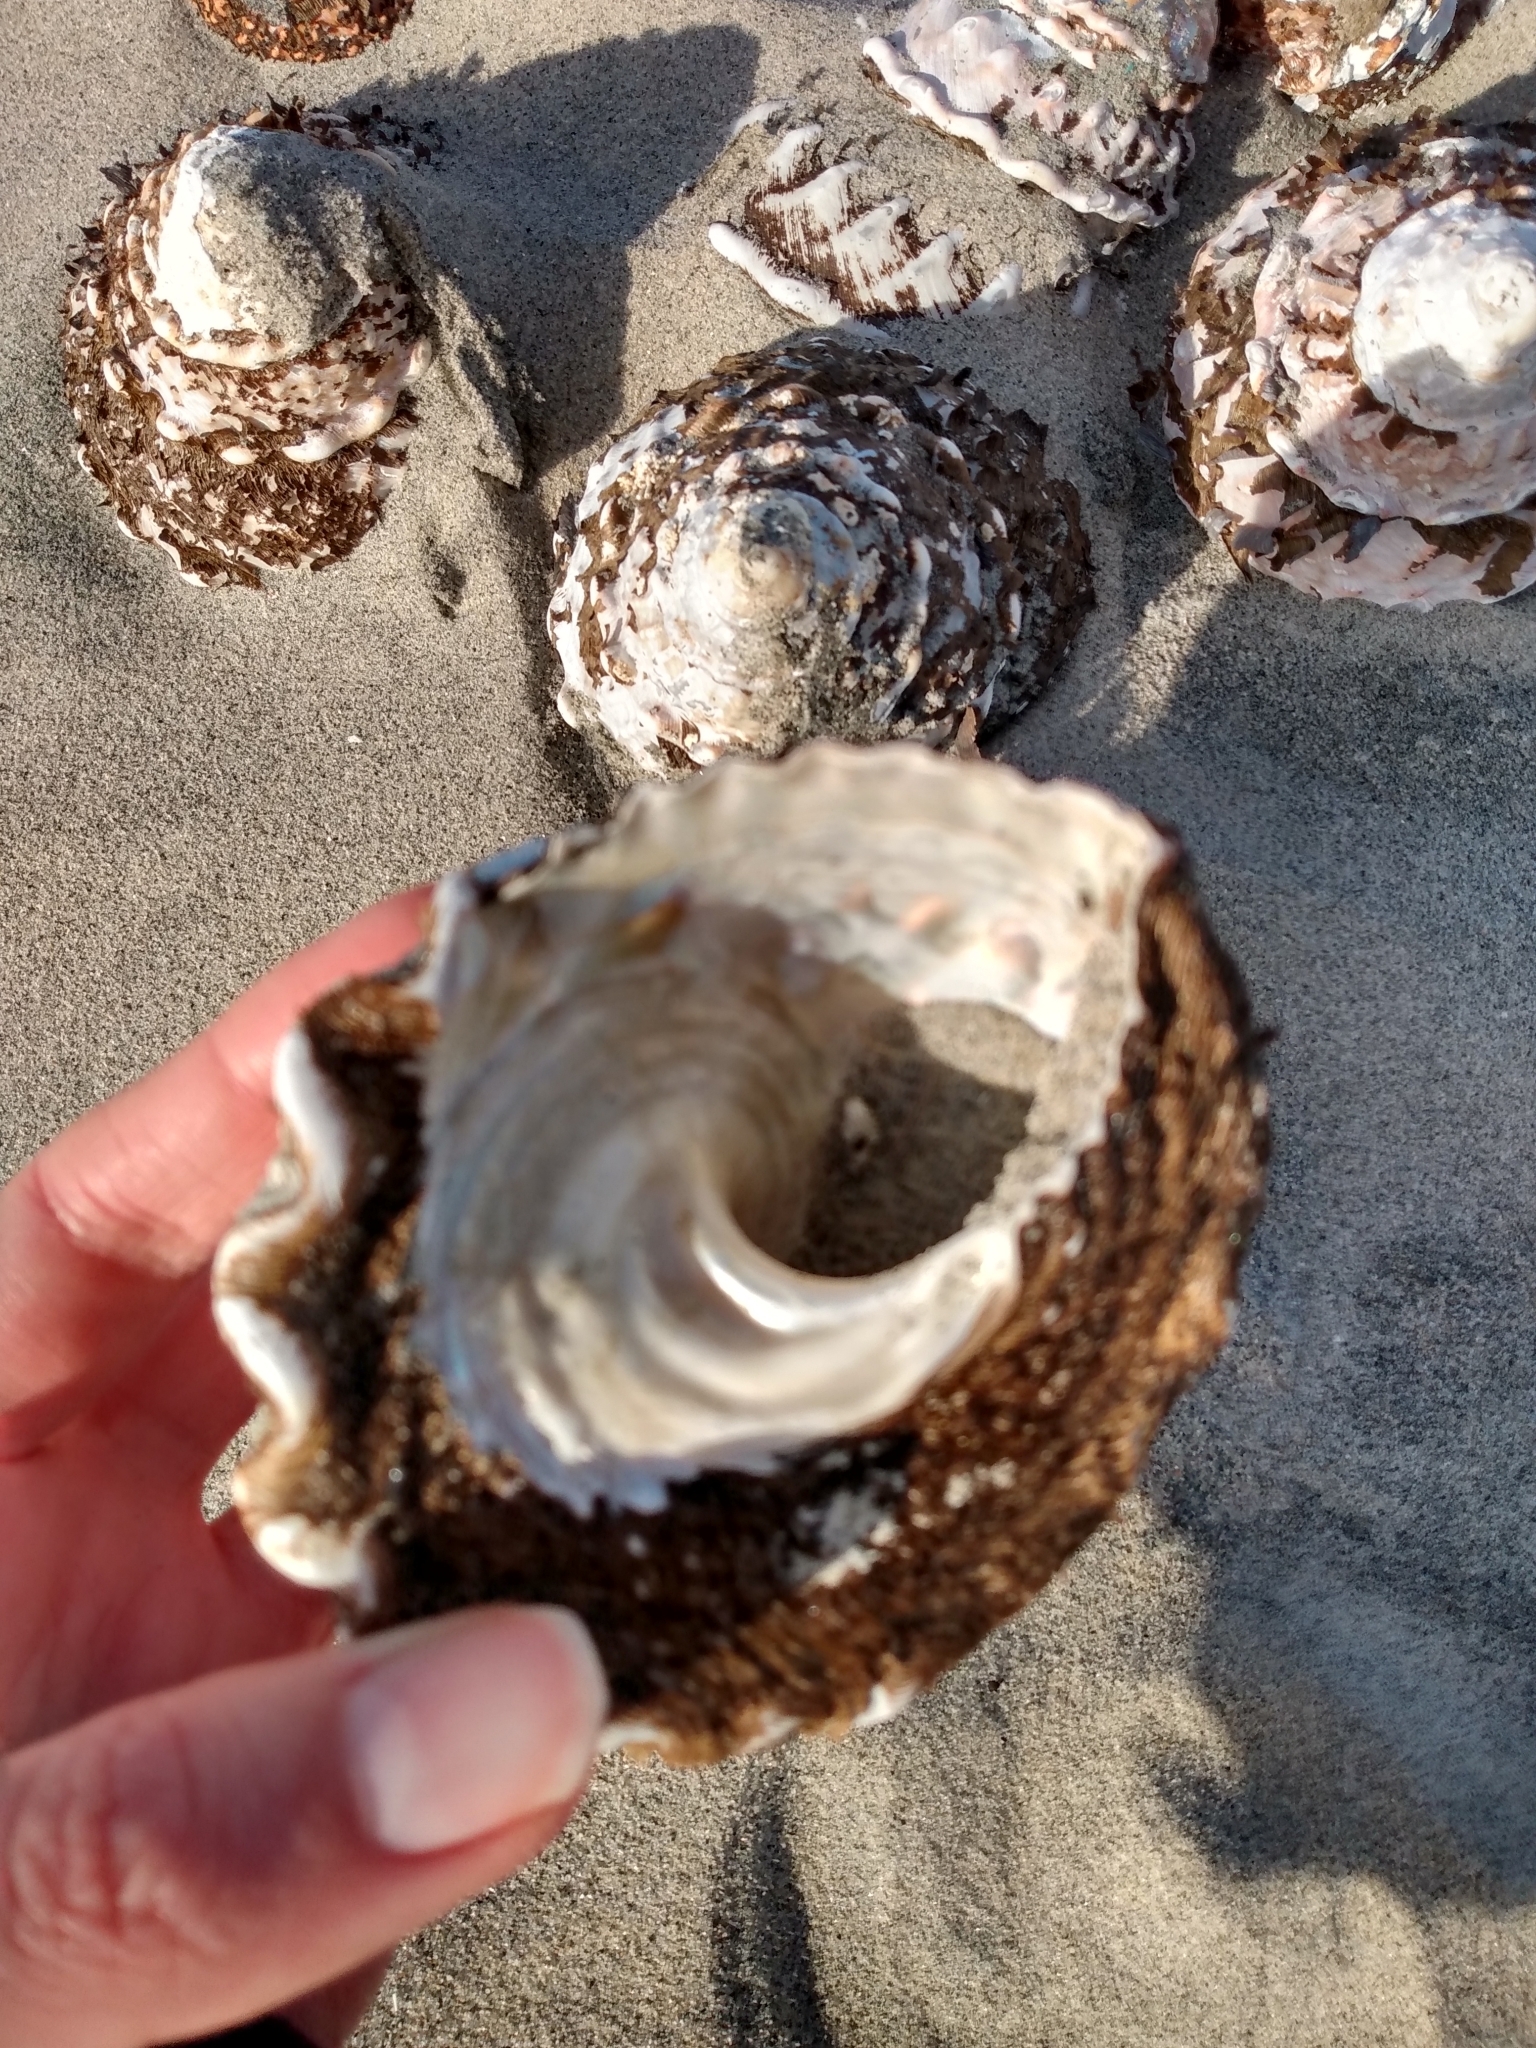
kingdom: Animalia
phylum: Mollusca
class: Gastropoda
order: Trochida
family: Turbinidae
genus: Megastraea
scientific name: Megastraea undosa
